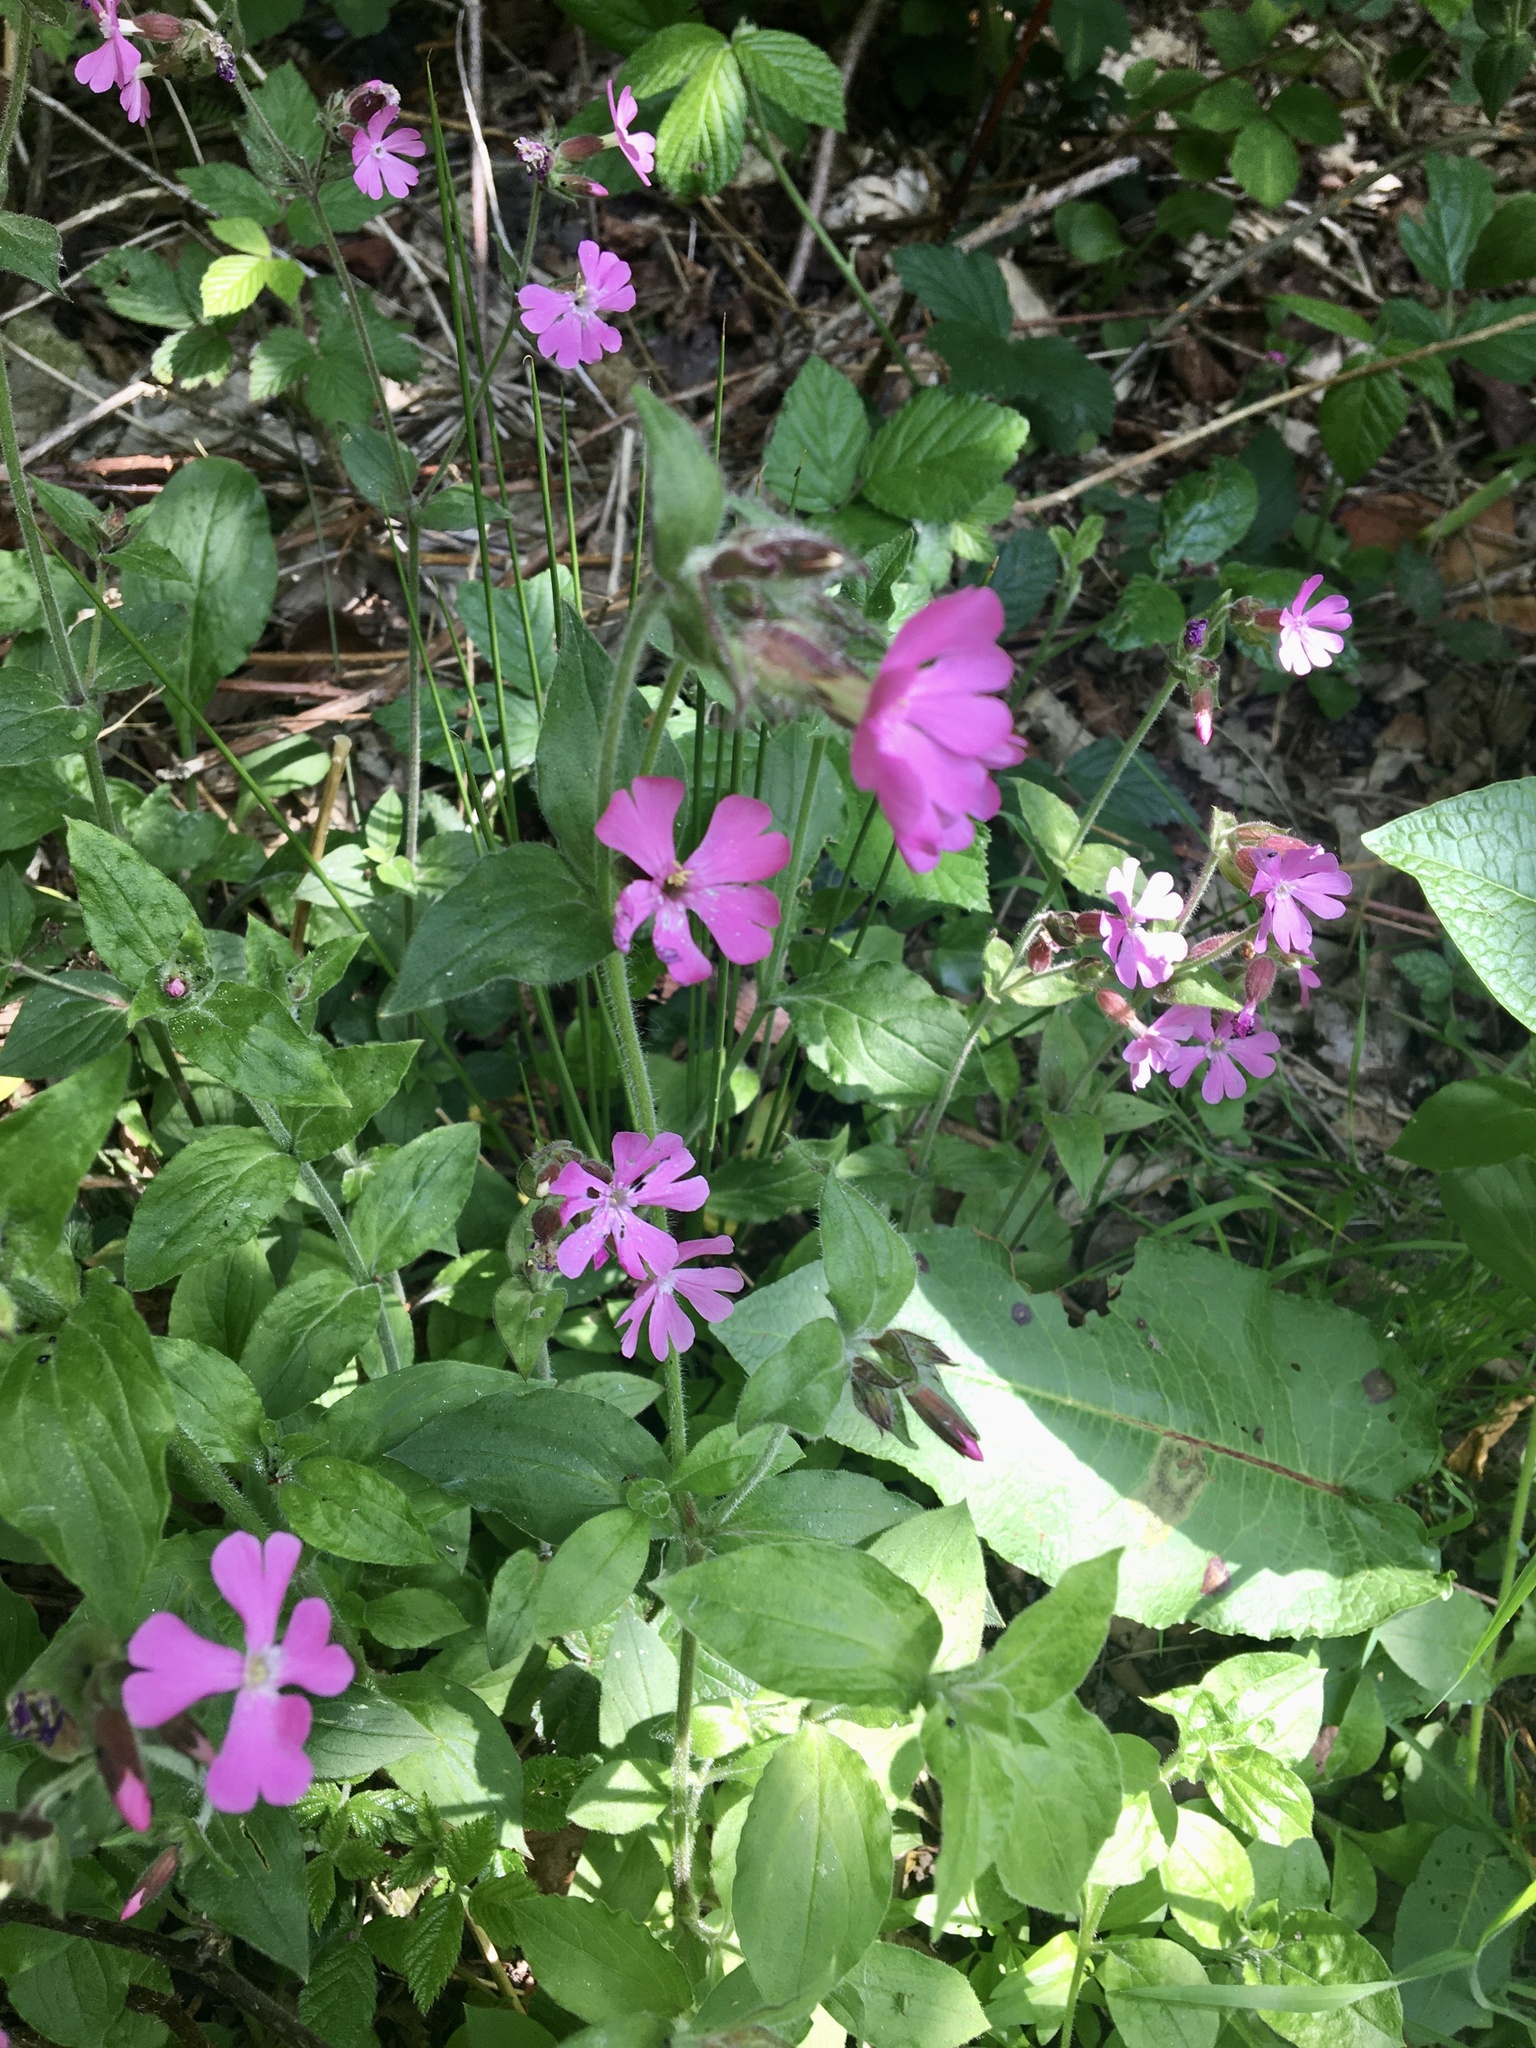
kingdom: Plantae
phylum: Tracheophyta
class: Magnoliopsida
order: Caryophyllales
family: Caryophyllaceae
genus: Silene
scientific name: Silene dioica
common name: Red campion
